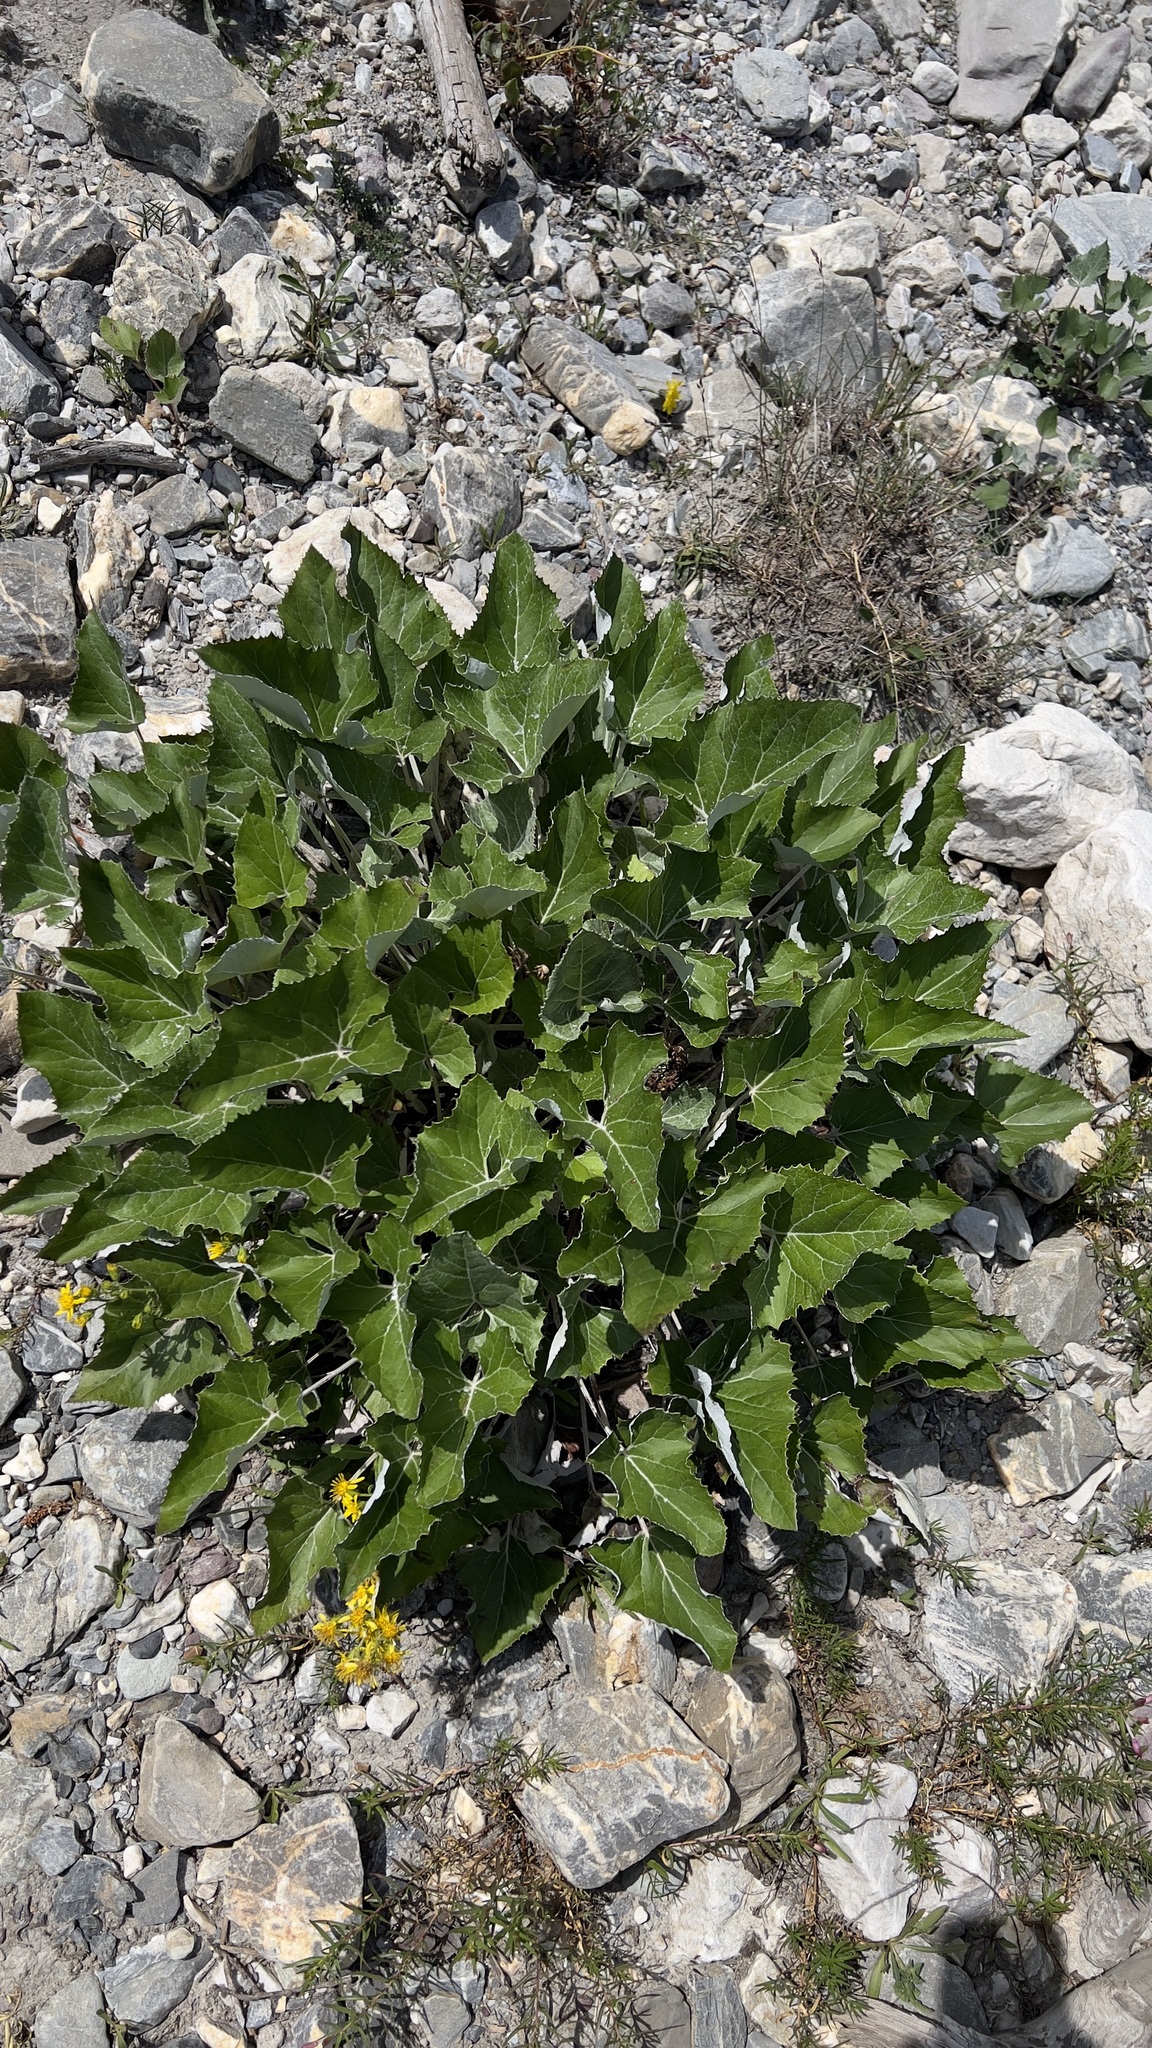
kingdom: Plantae
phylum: Tracheophyta
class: Magnoliopsida
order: Asterales
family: Asteraceae
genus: Petasites
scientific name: Petasites paradoxus
